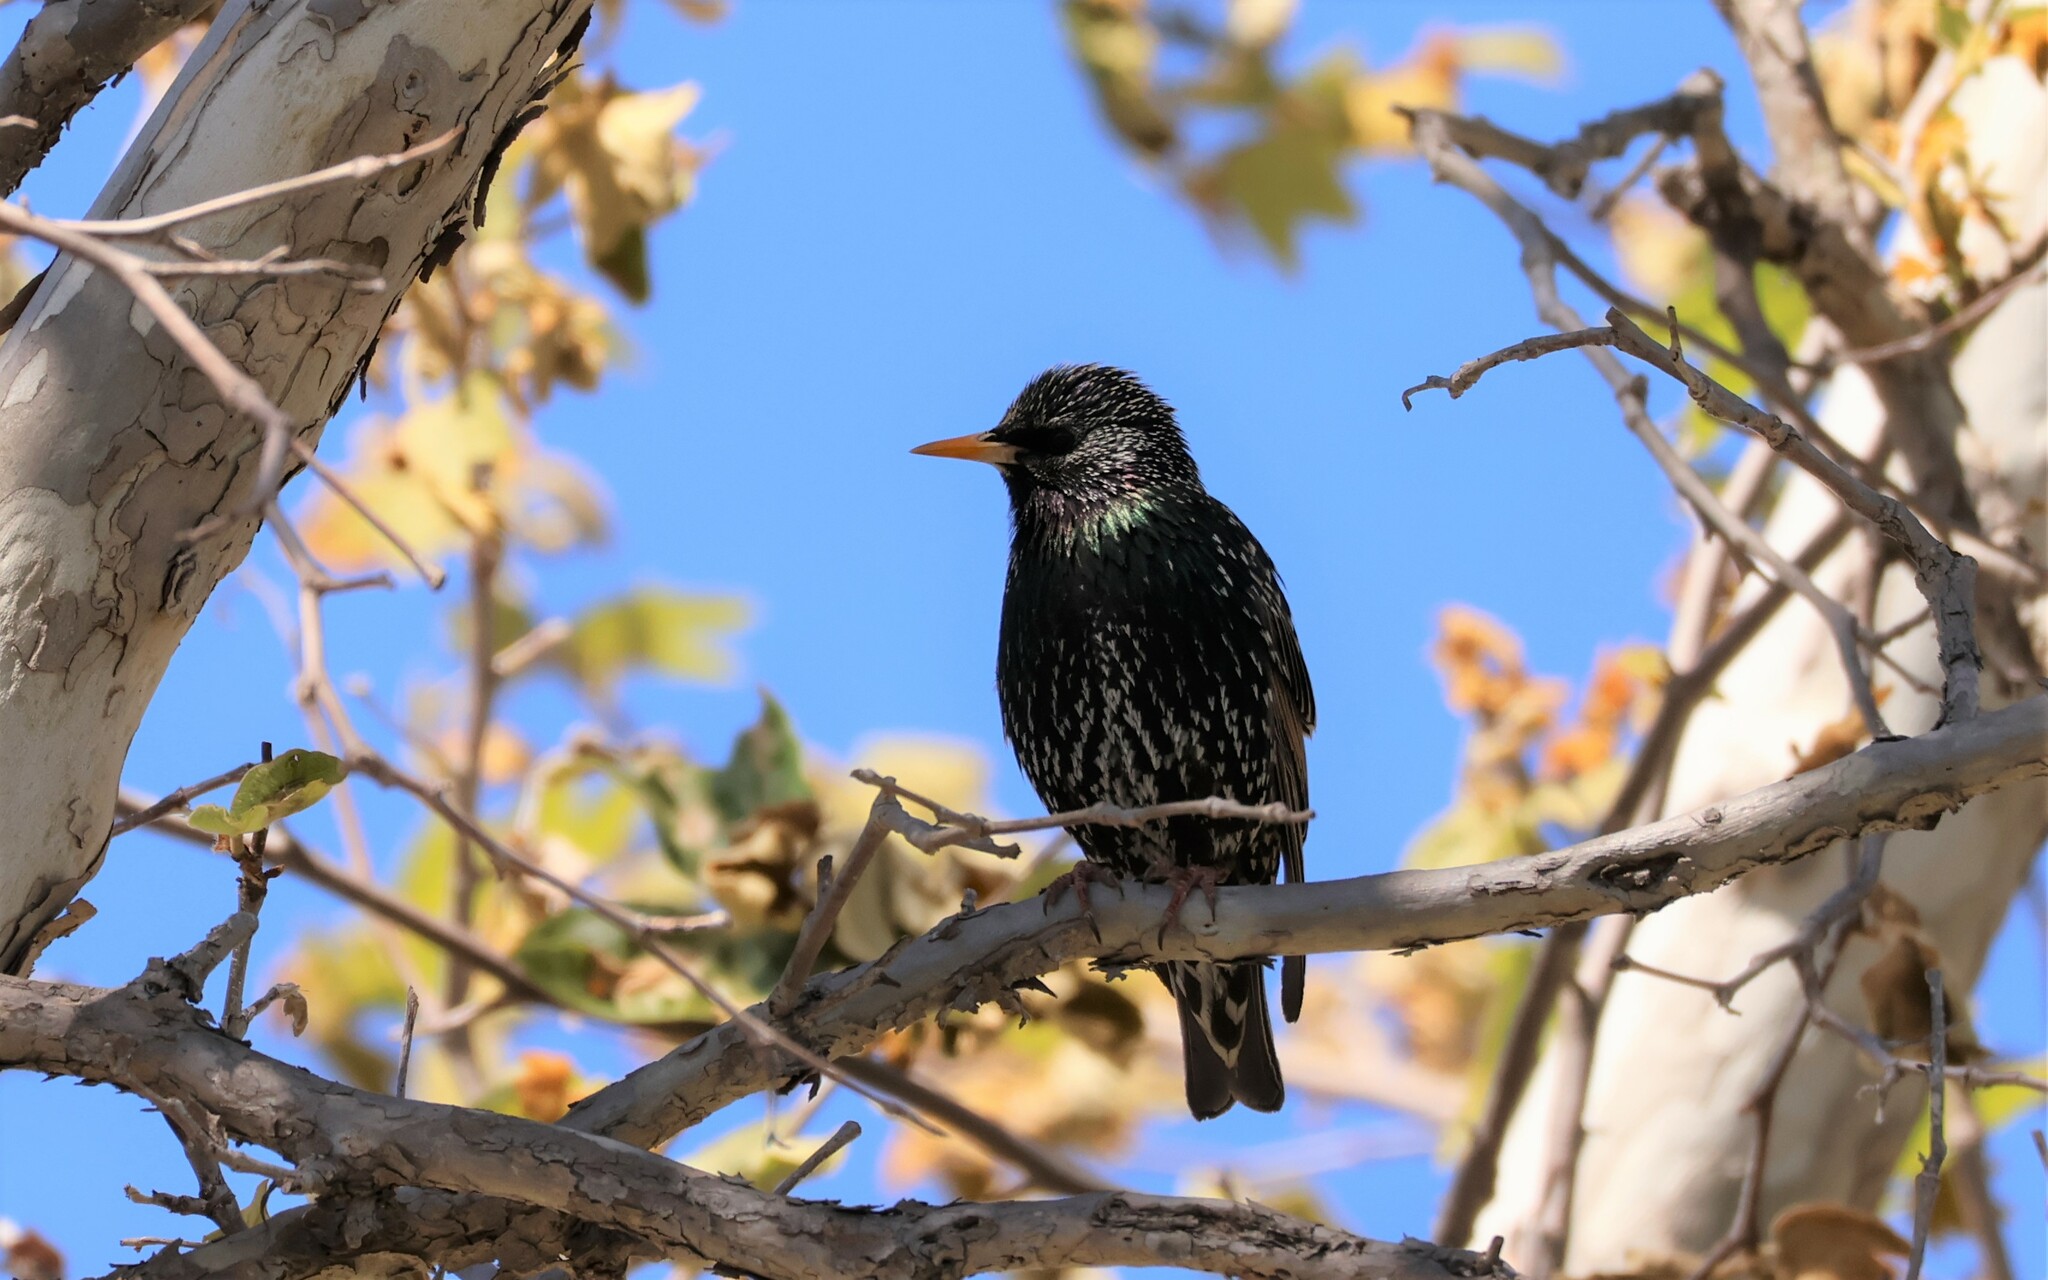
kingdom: Animalia
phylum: Chordata
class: Aves
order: Passeriformes
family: Sturnidae
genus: Sturnus
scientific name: Sturnus vulgaris
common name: Common starling
